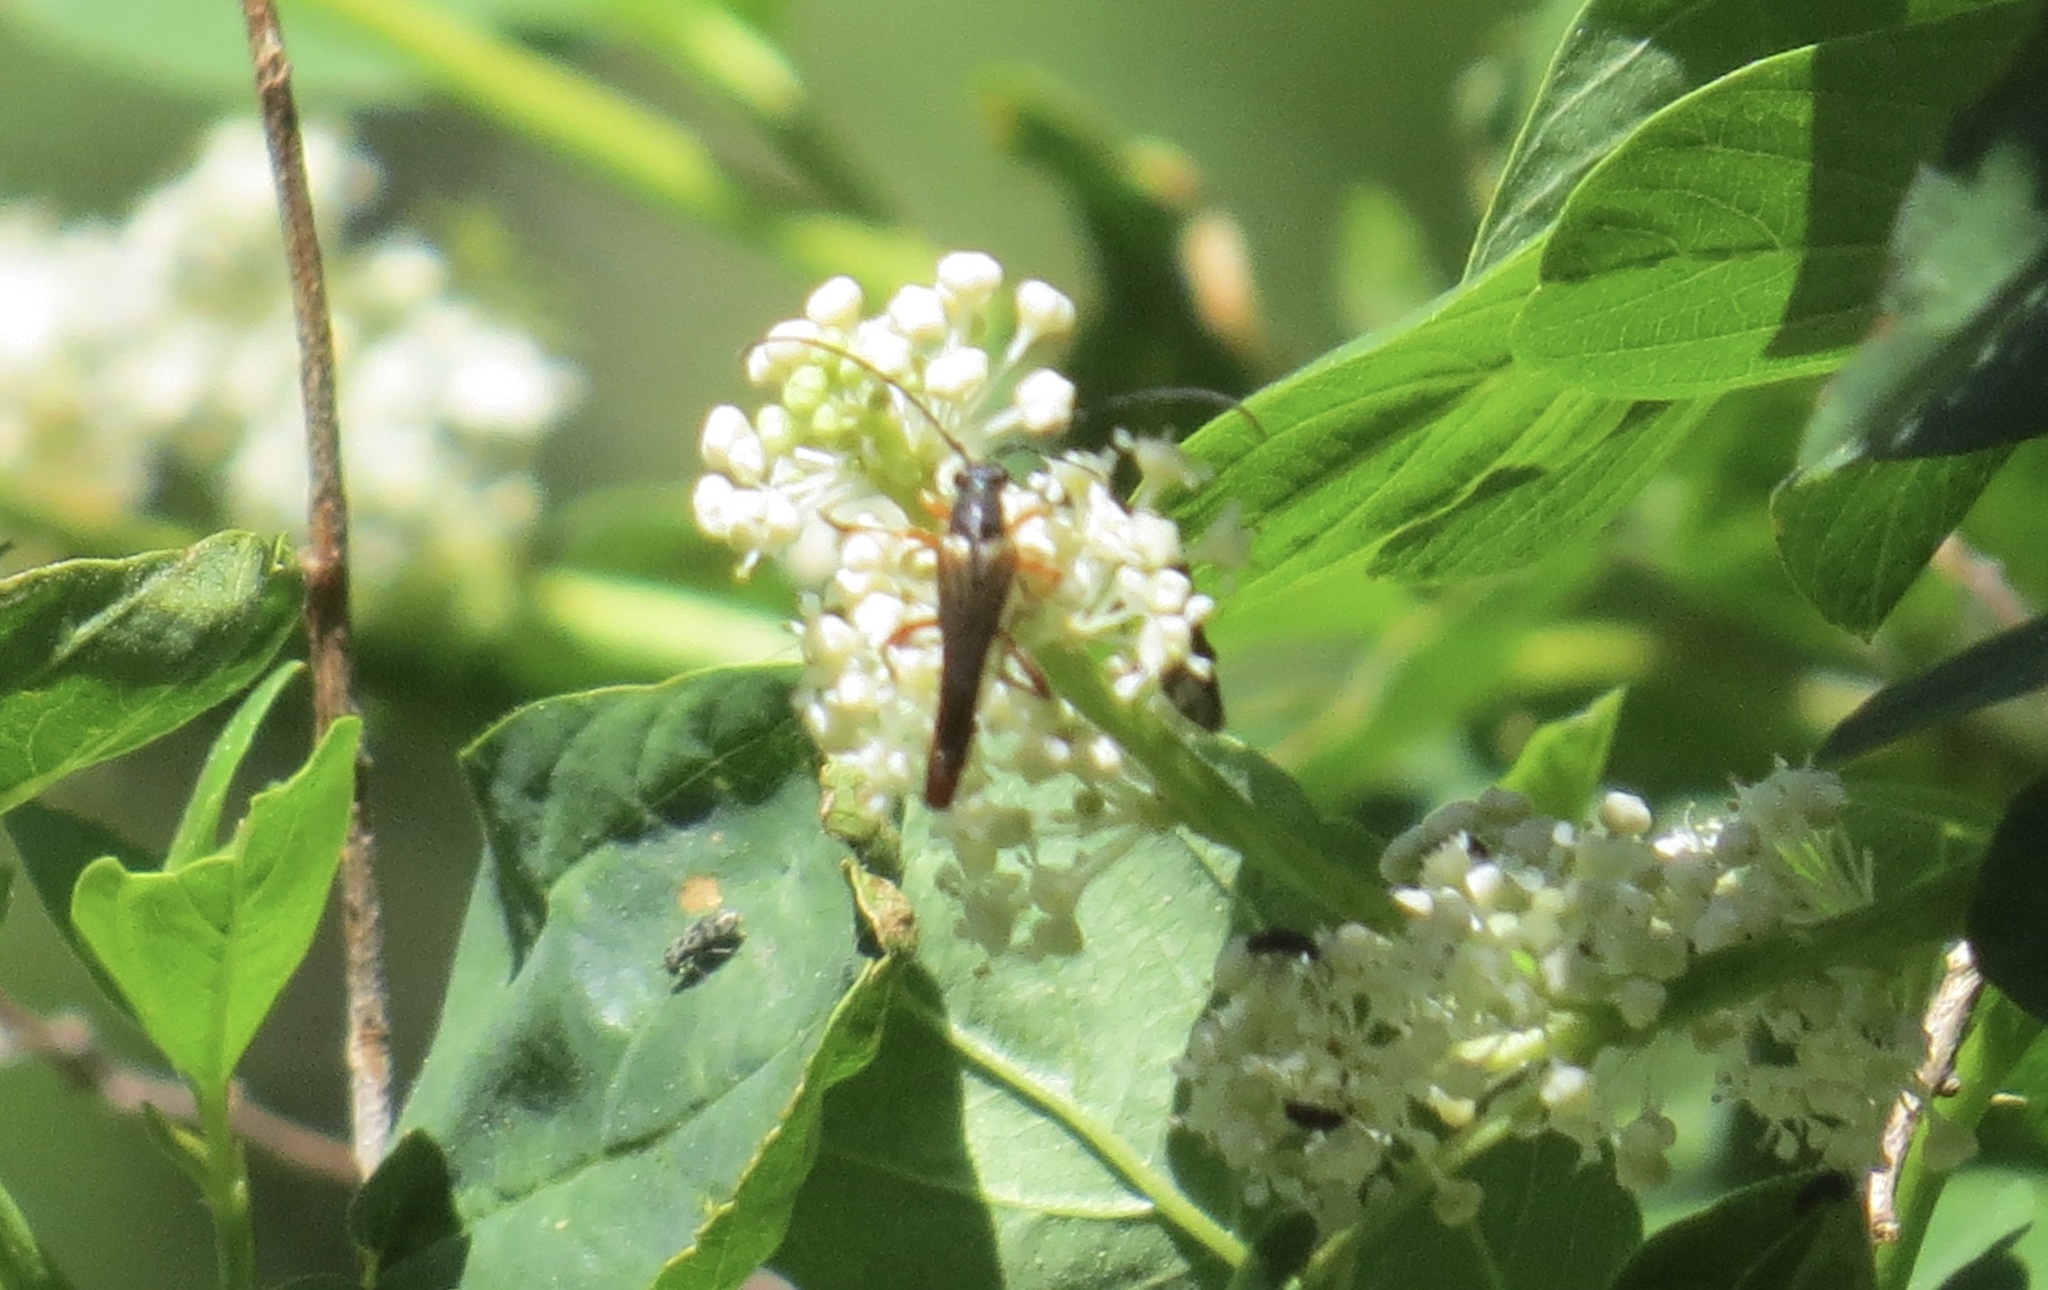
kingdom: Animalia
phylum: Arthropoda
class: Insecta
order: Coleoptera
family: Cerambycidae
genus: Neobellamira
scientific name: Neobellamira delicata
